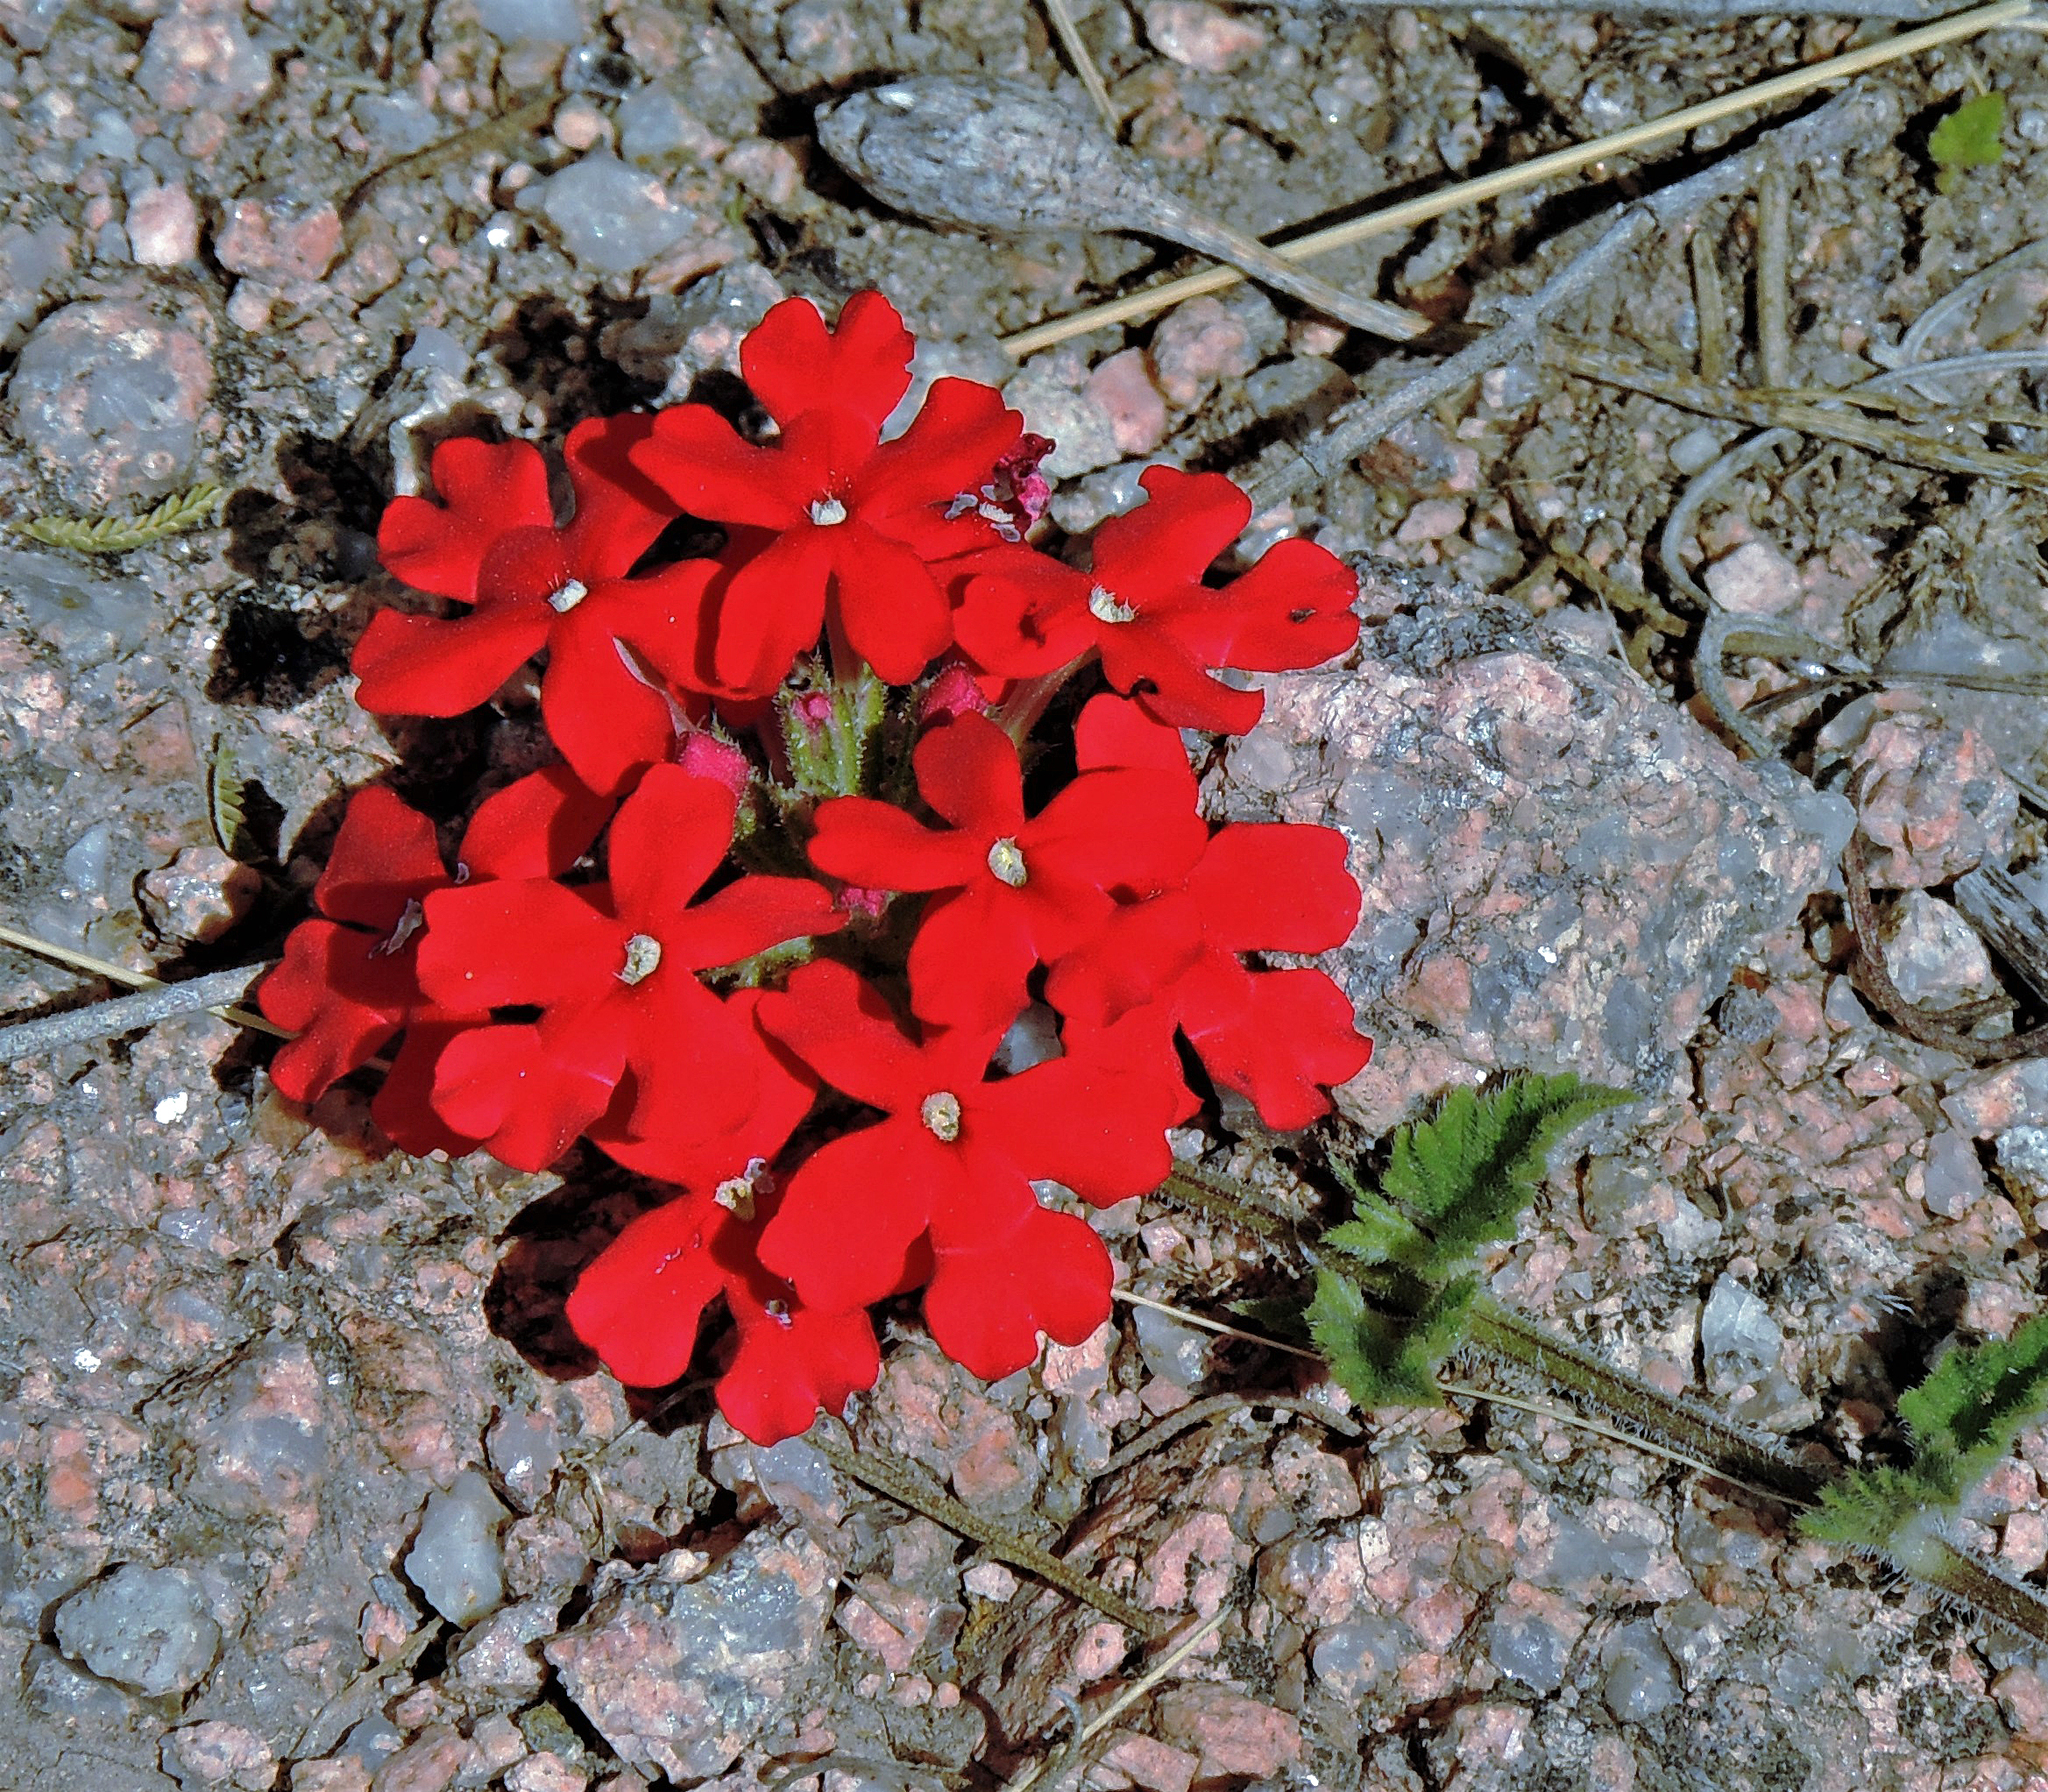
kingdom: Plantae
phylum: Tracheophyta
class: Magnoliopsida
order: Lamiales
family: Verbenaceae
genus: Verbena
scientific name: Verbena peruviana
